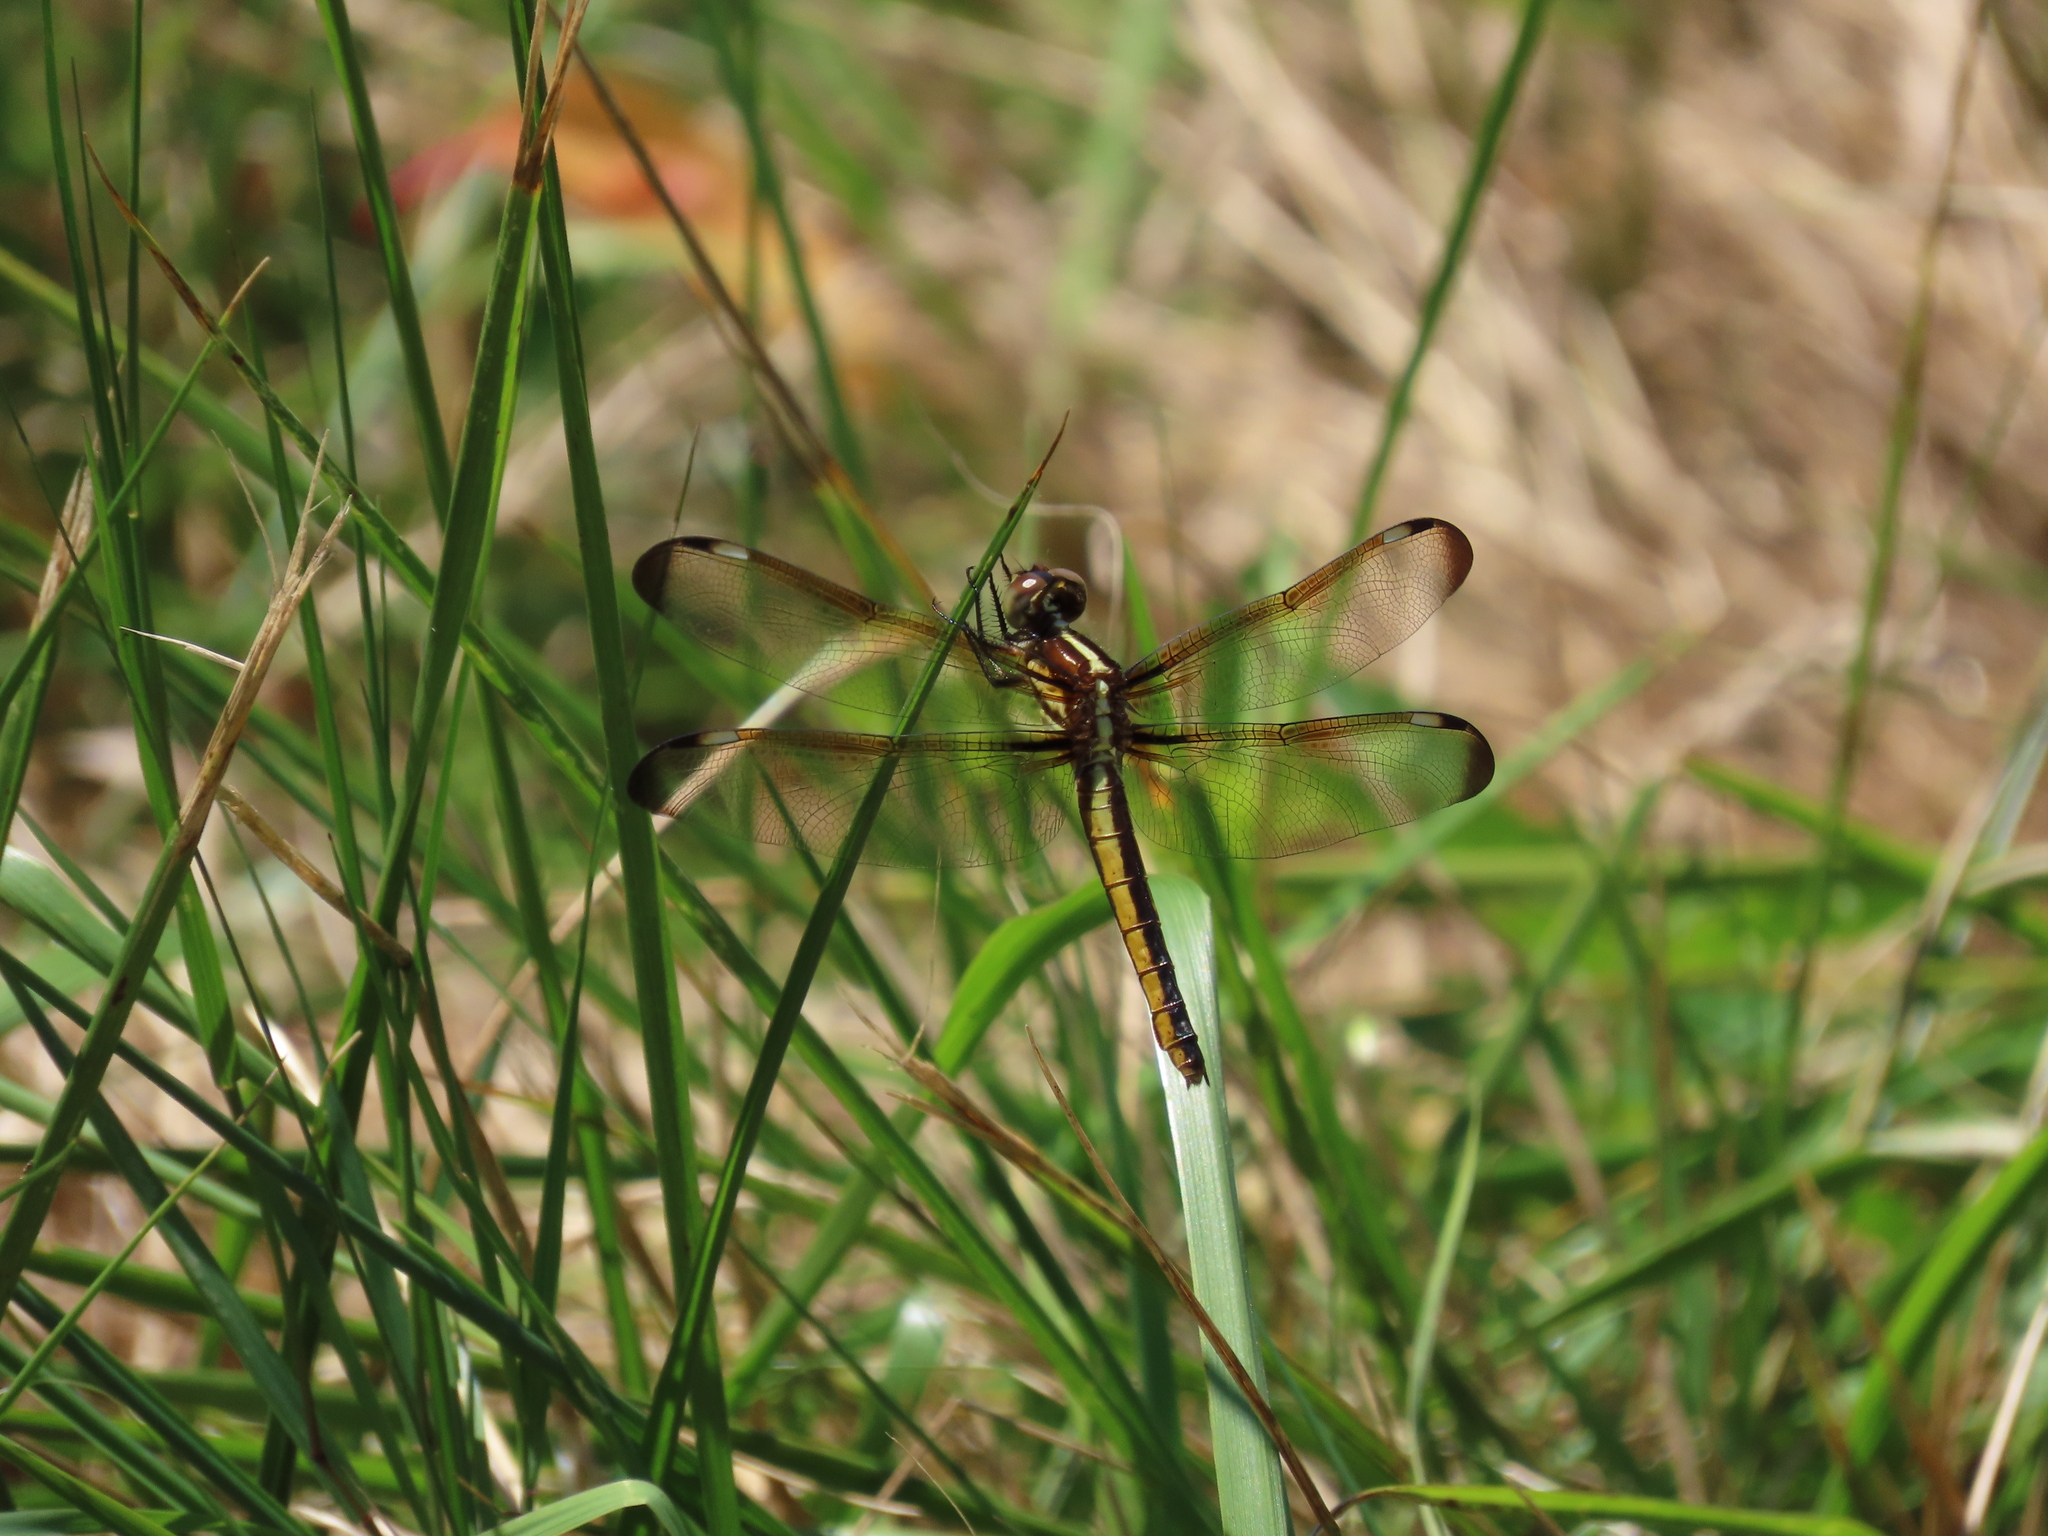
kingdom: Animalia
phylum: Arthropoda
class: Insecta
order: Odonata
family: Libellulidae
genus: Libellula
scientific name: Libellula cyanea
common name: Spangled skimmer
